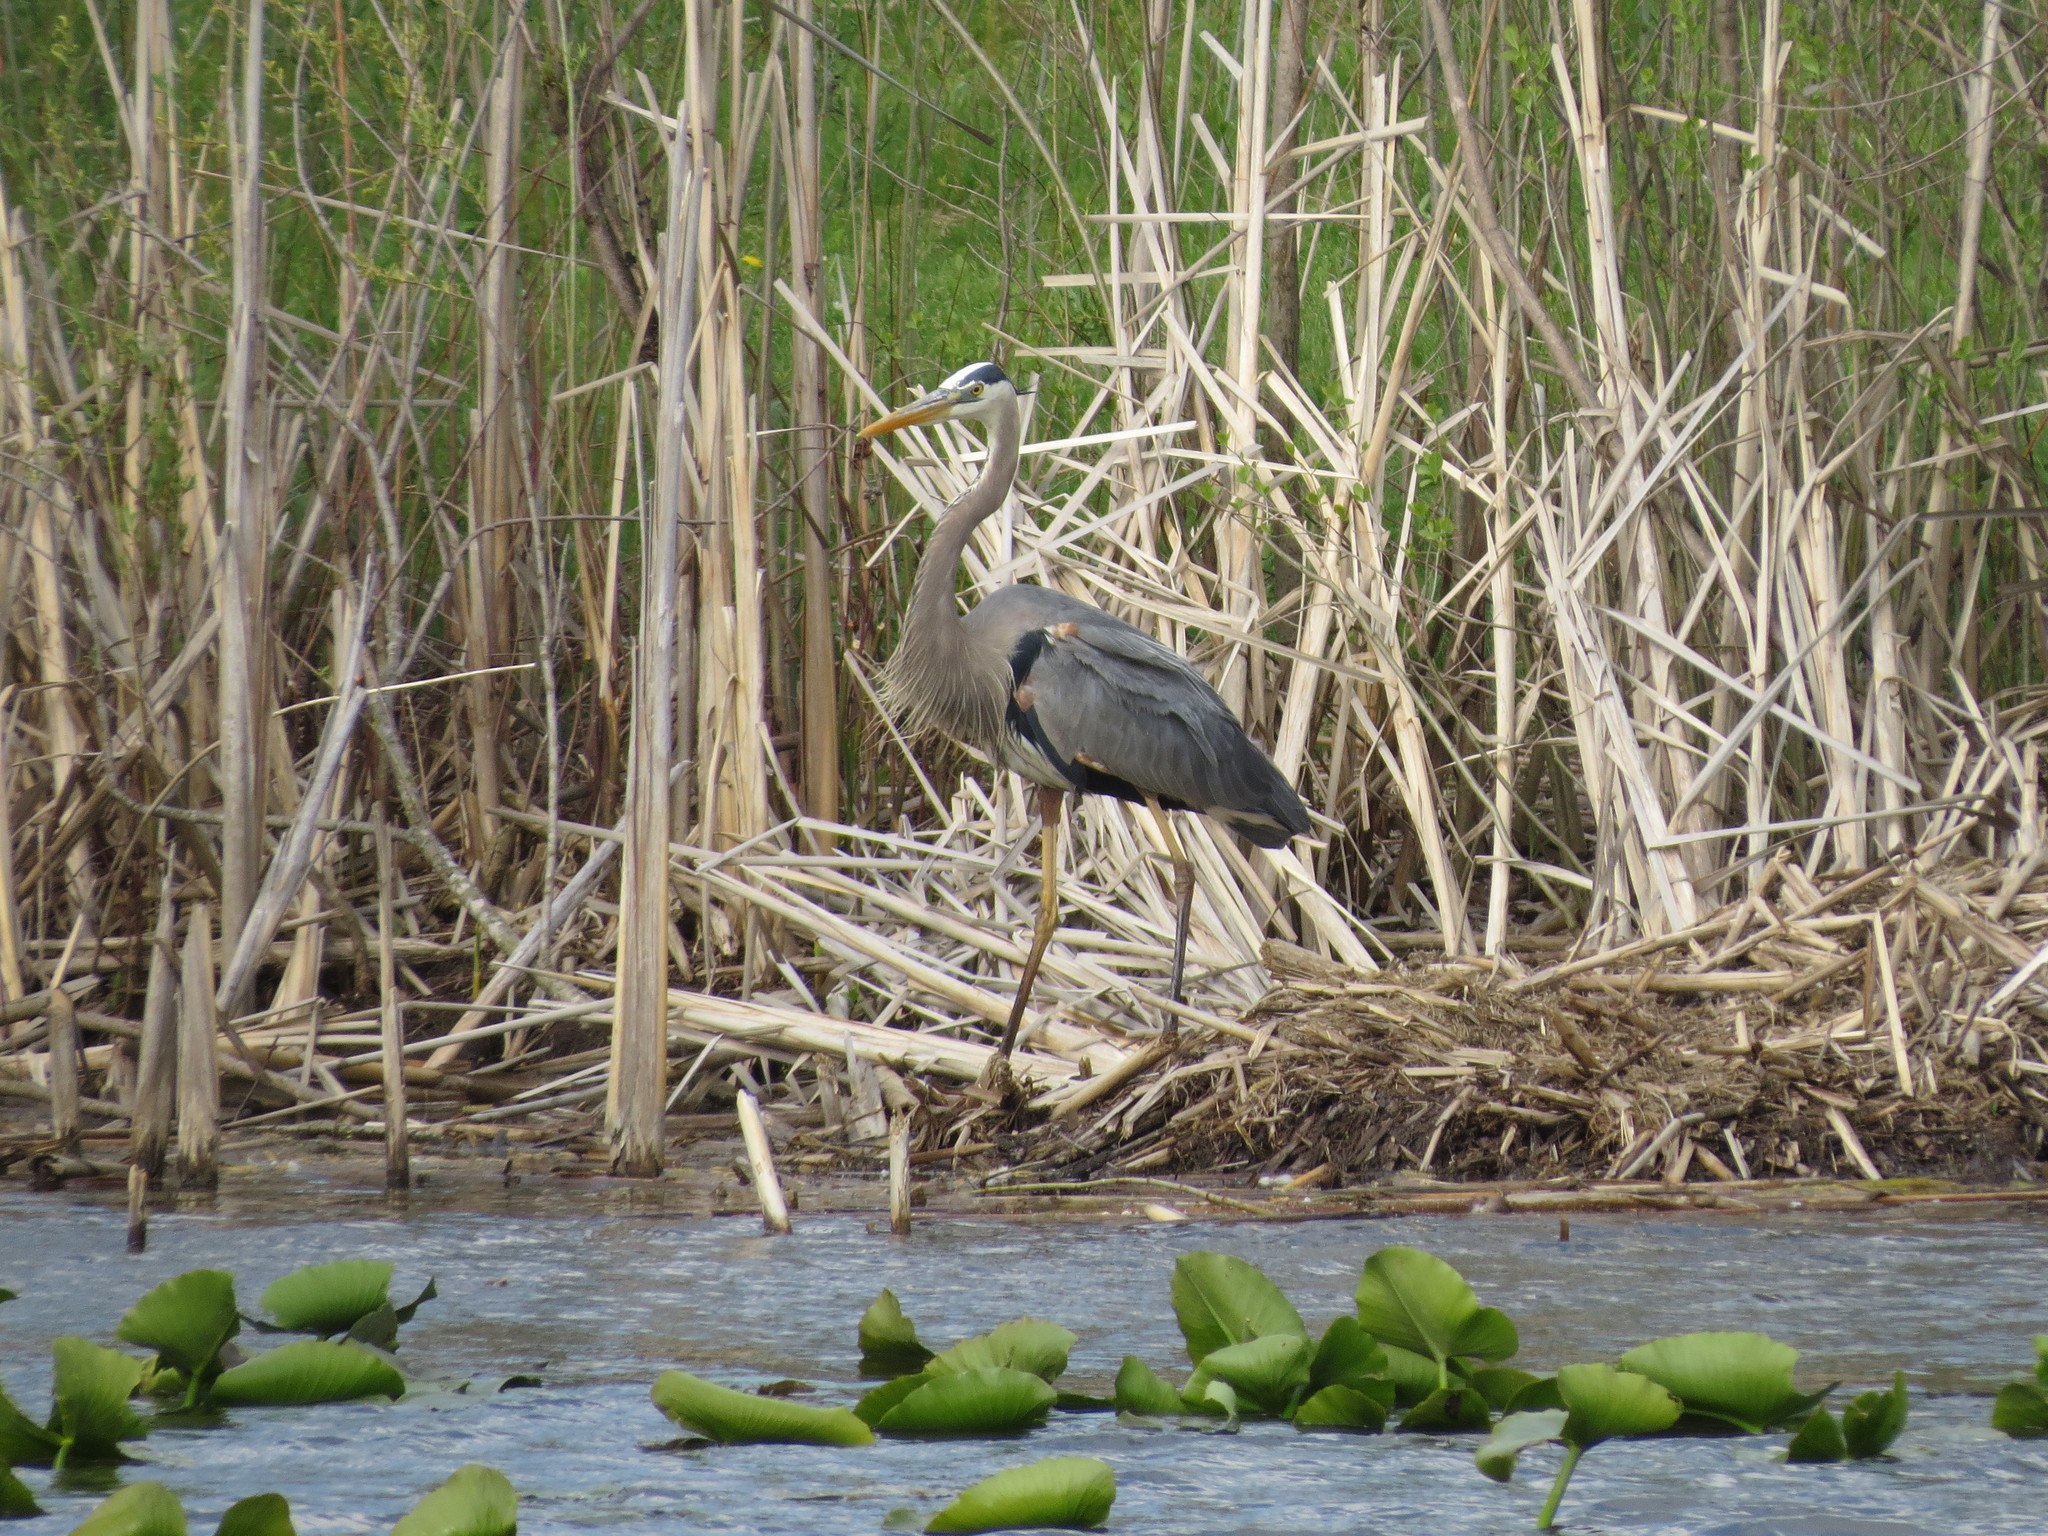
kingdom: Animalia
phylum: Chordata
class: Aves
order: Pelecaniformes
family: Ardeidae
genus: Ardea
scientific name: Ardea herodias
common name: Great blue heron
